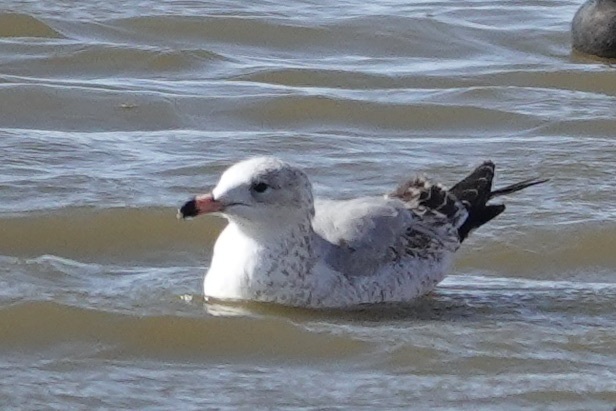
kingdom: Animalia
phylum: Chordata
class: Aves
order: Charadriiformes
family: Laridae
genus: Larus
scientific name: Larus delawarensis
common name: Ring-billed gull
